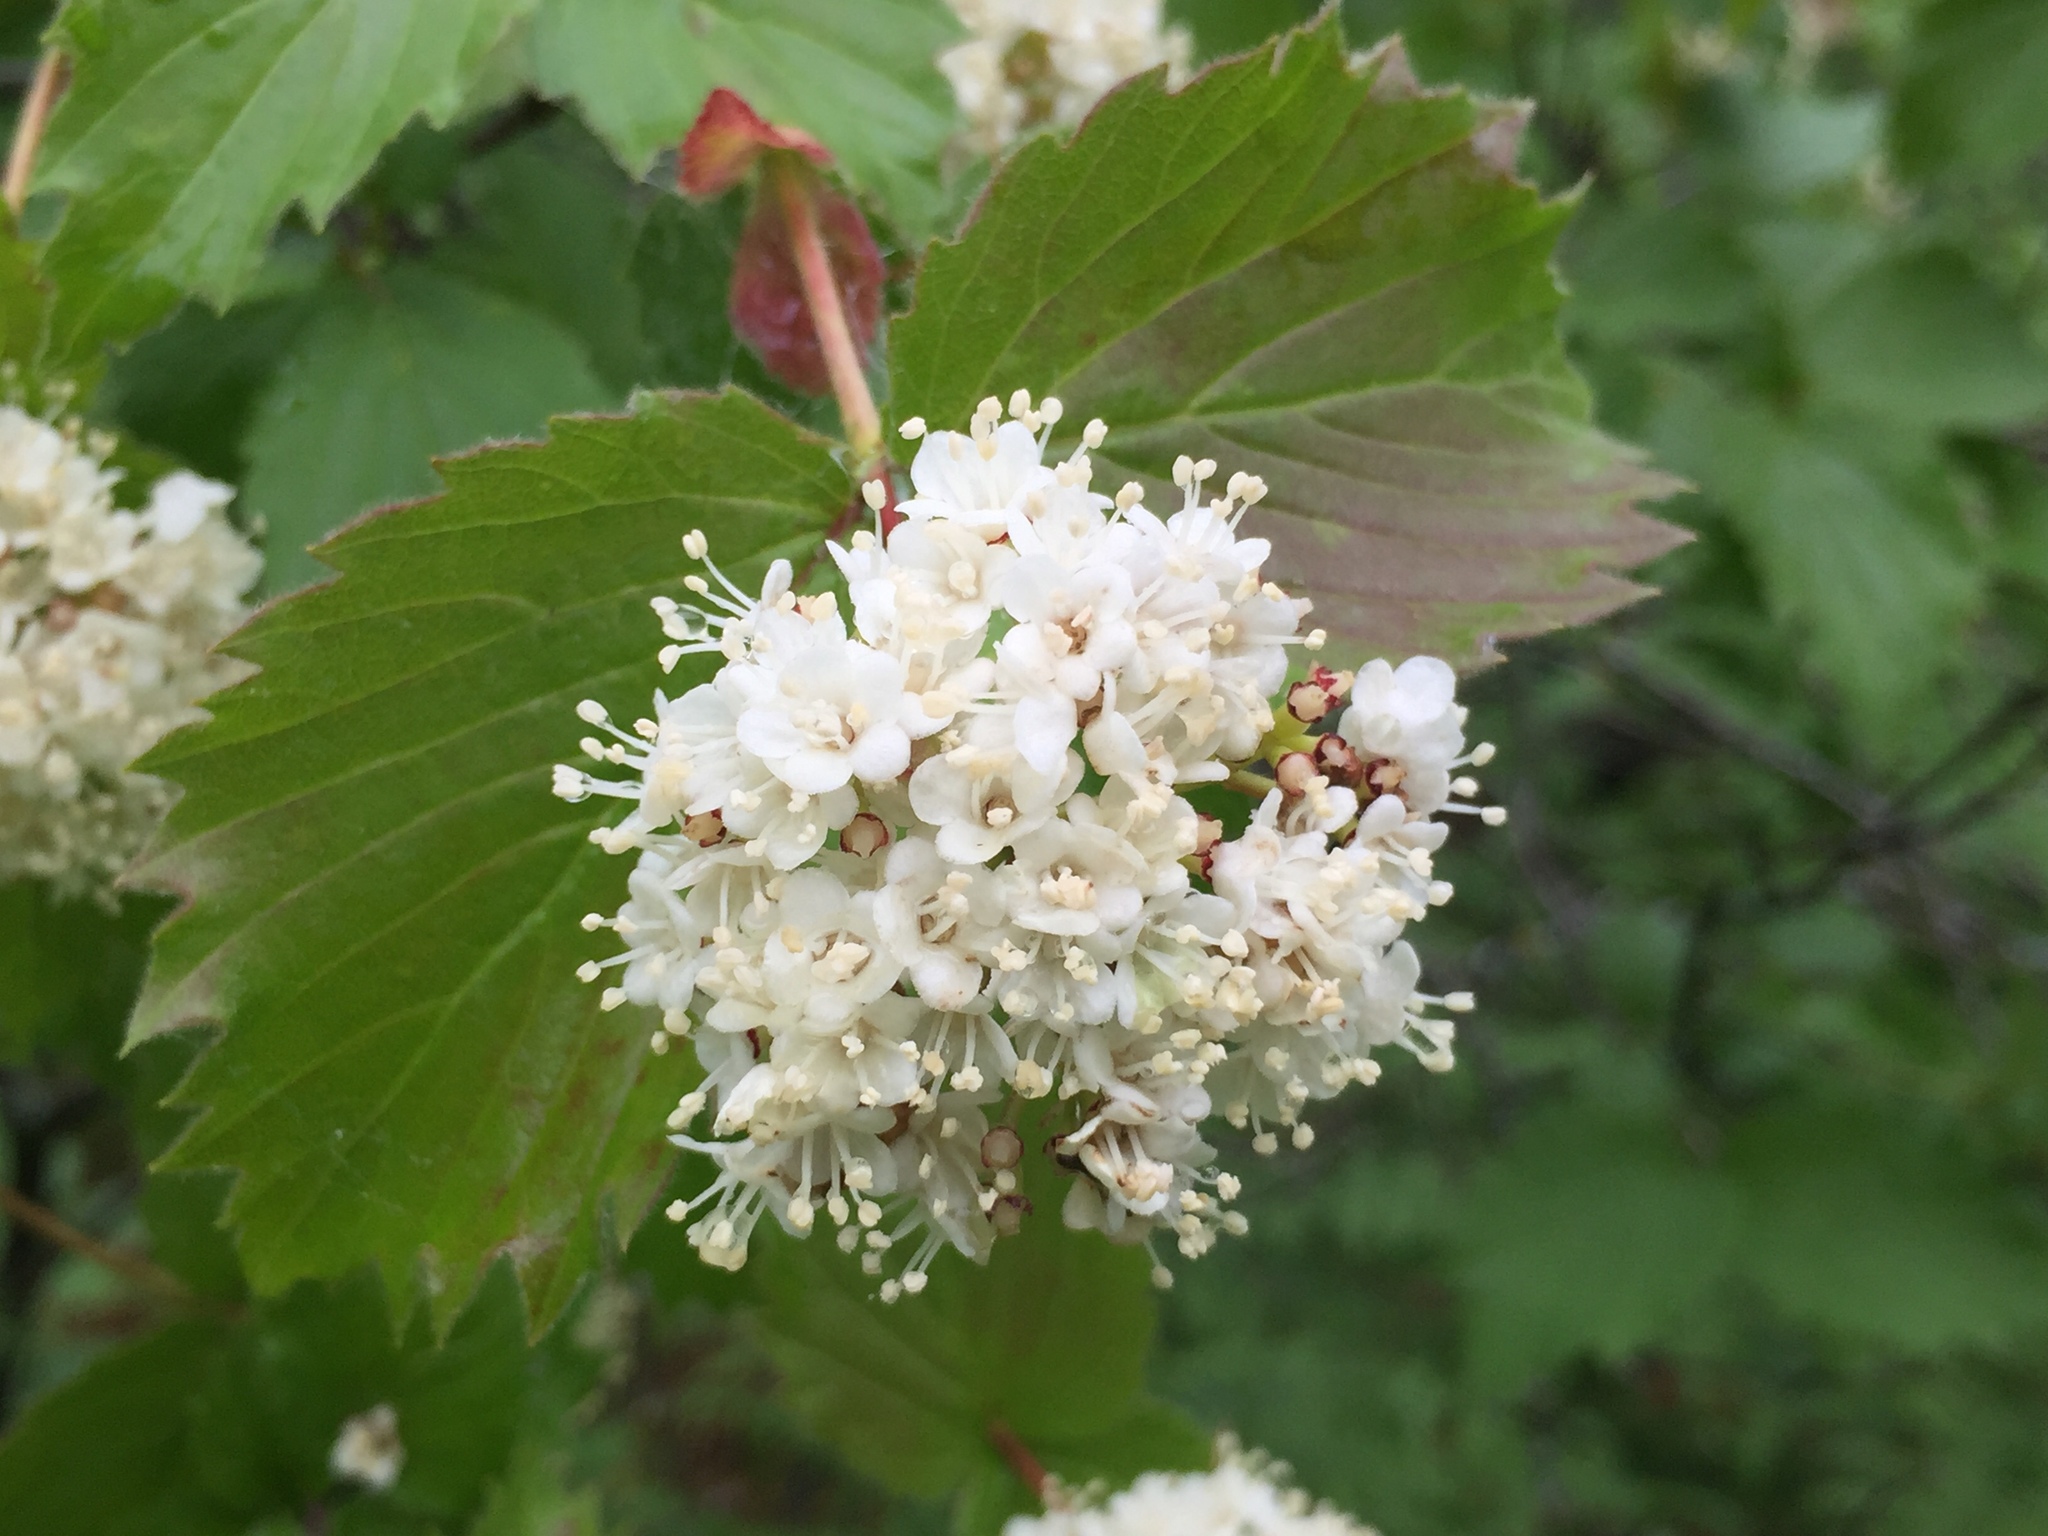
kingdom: Plantae
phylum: Tracheophyta
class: Magnoliopsida
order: Dipsacales
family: Viburnaceae
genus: Viburnum
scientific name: Viburnum rafinesqueanum
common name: Downy arrow-wood
